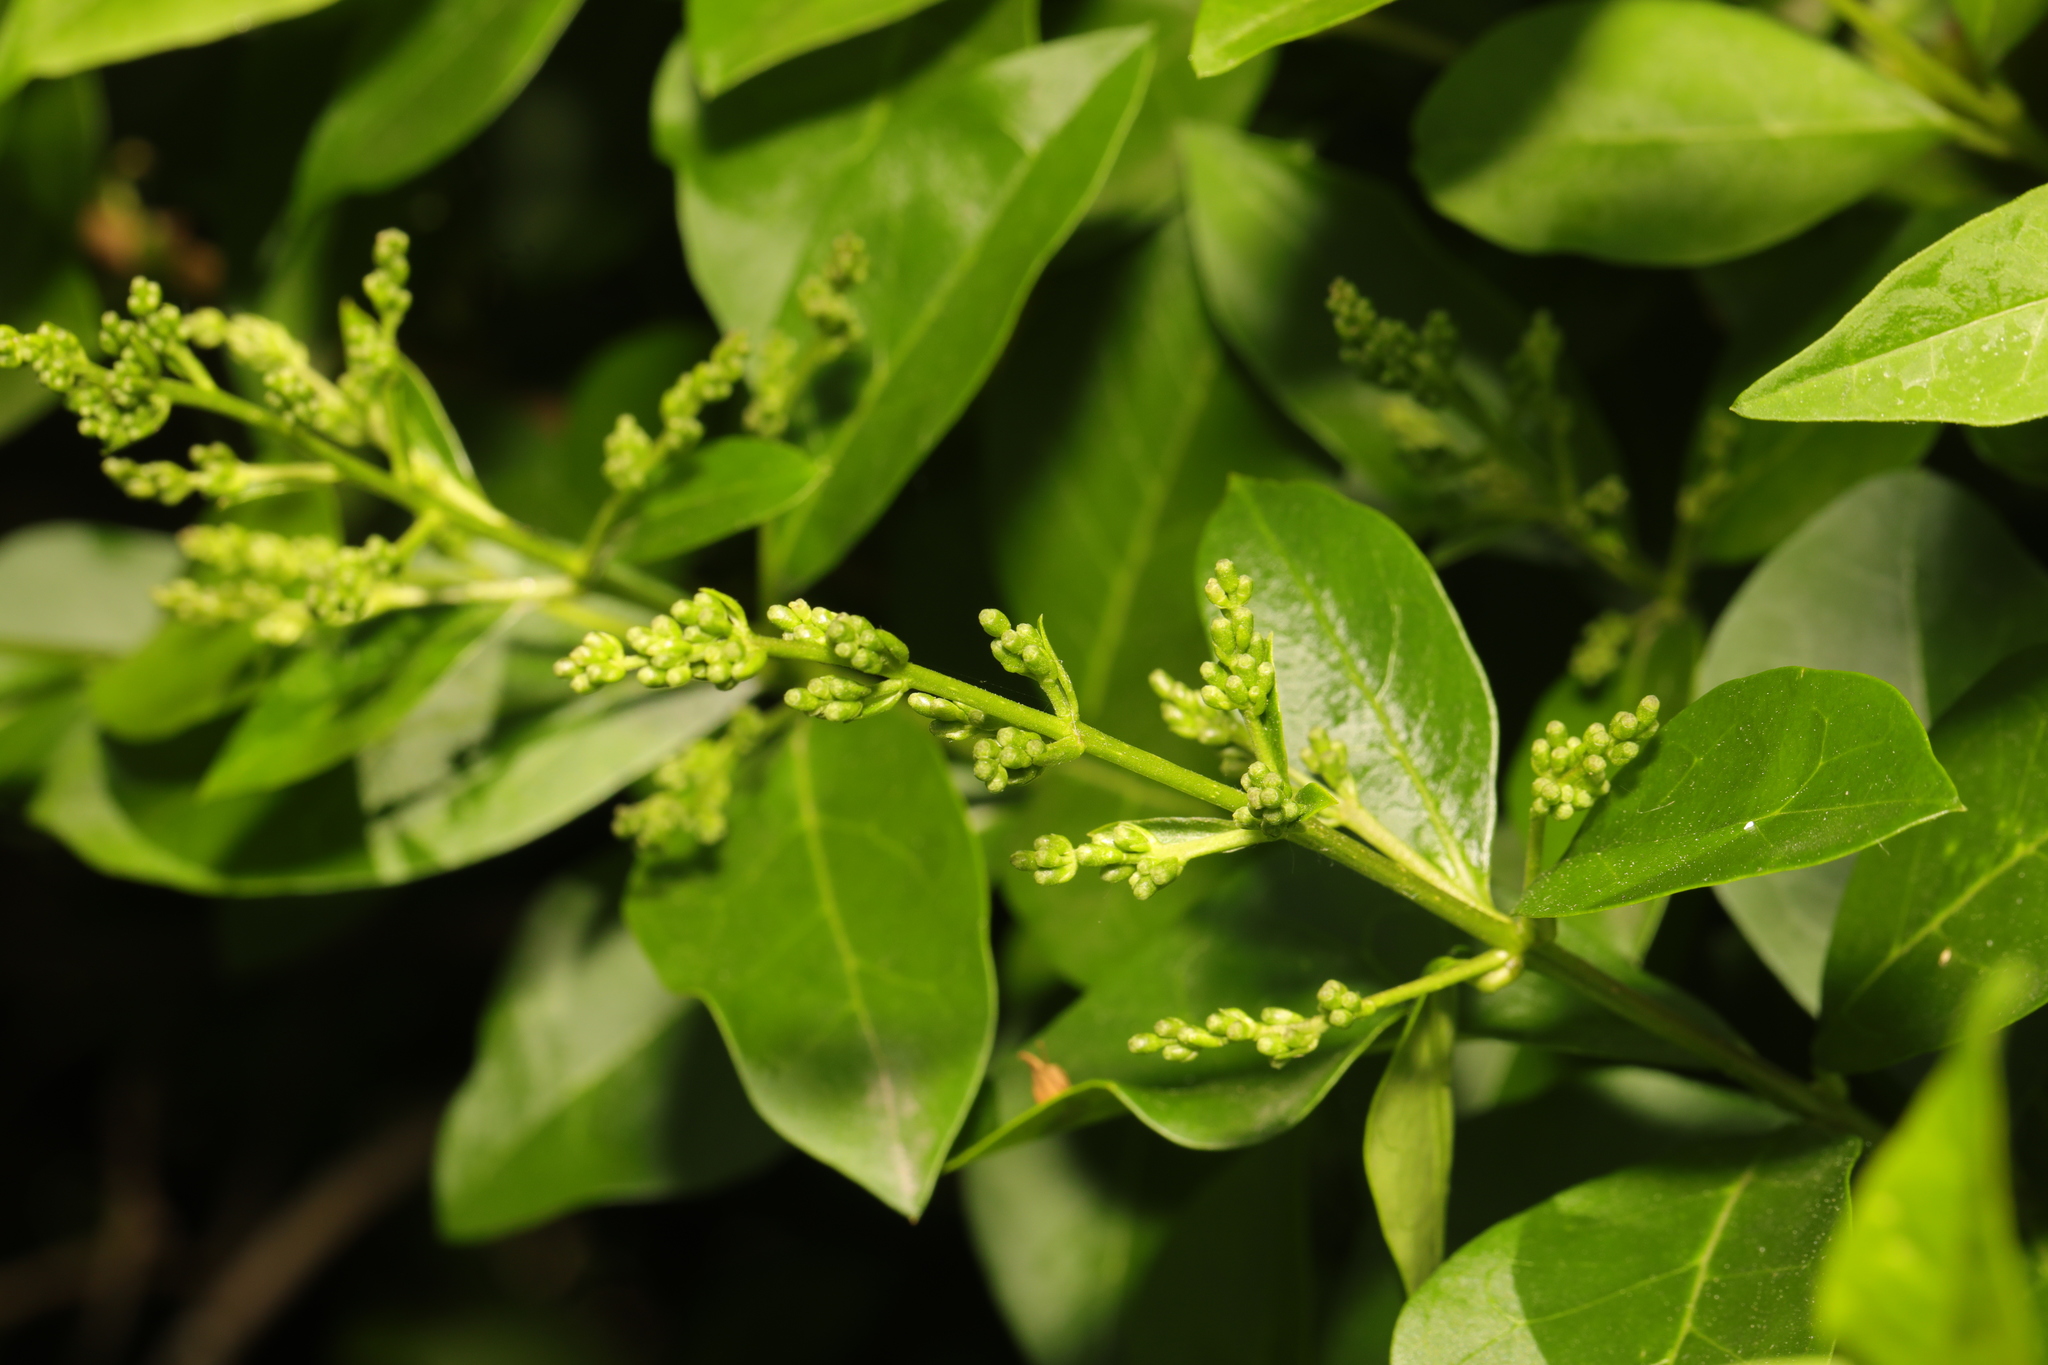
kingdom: Plantae
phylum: Tracheophyta
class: Magnoliopsida
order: Lamiales
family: Oleaceae
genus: Ligustrum
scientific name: Ligustrum ovalifolium
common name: California privet
